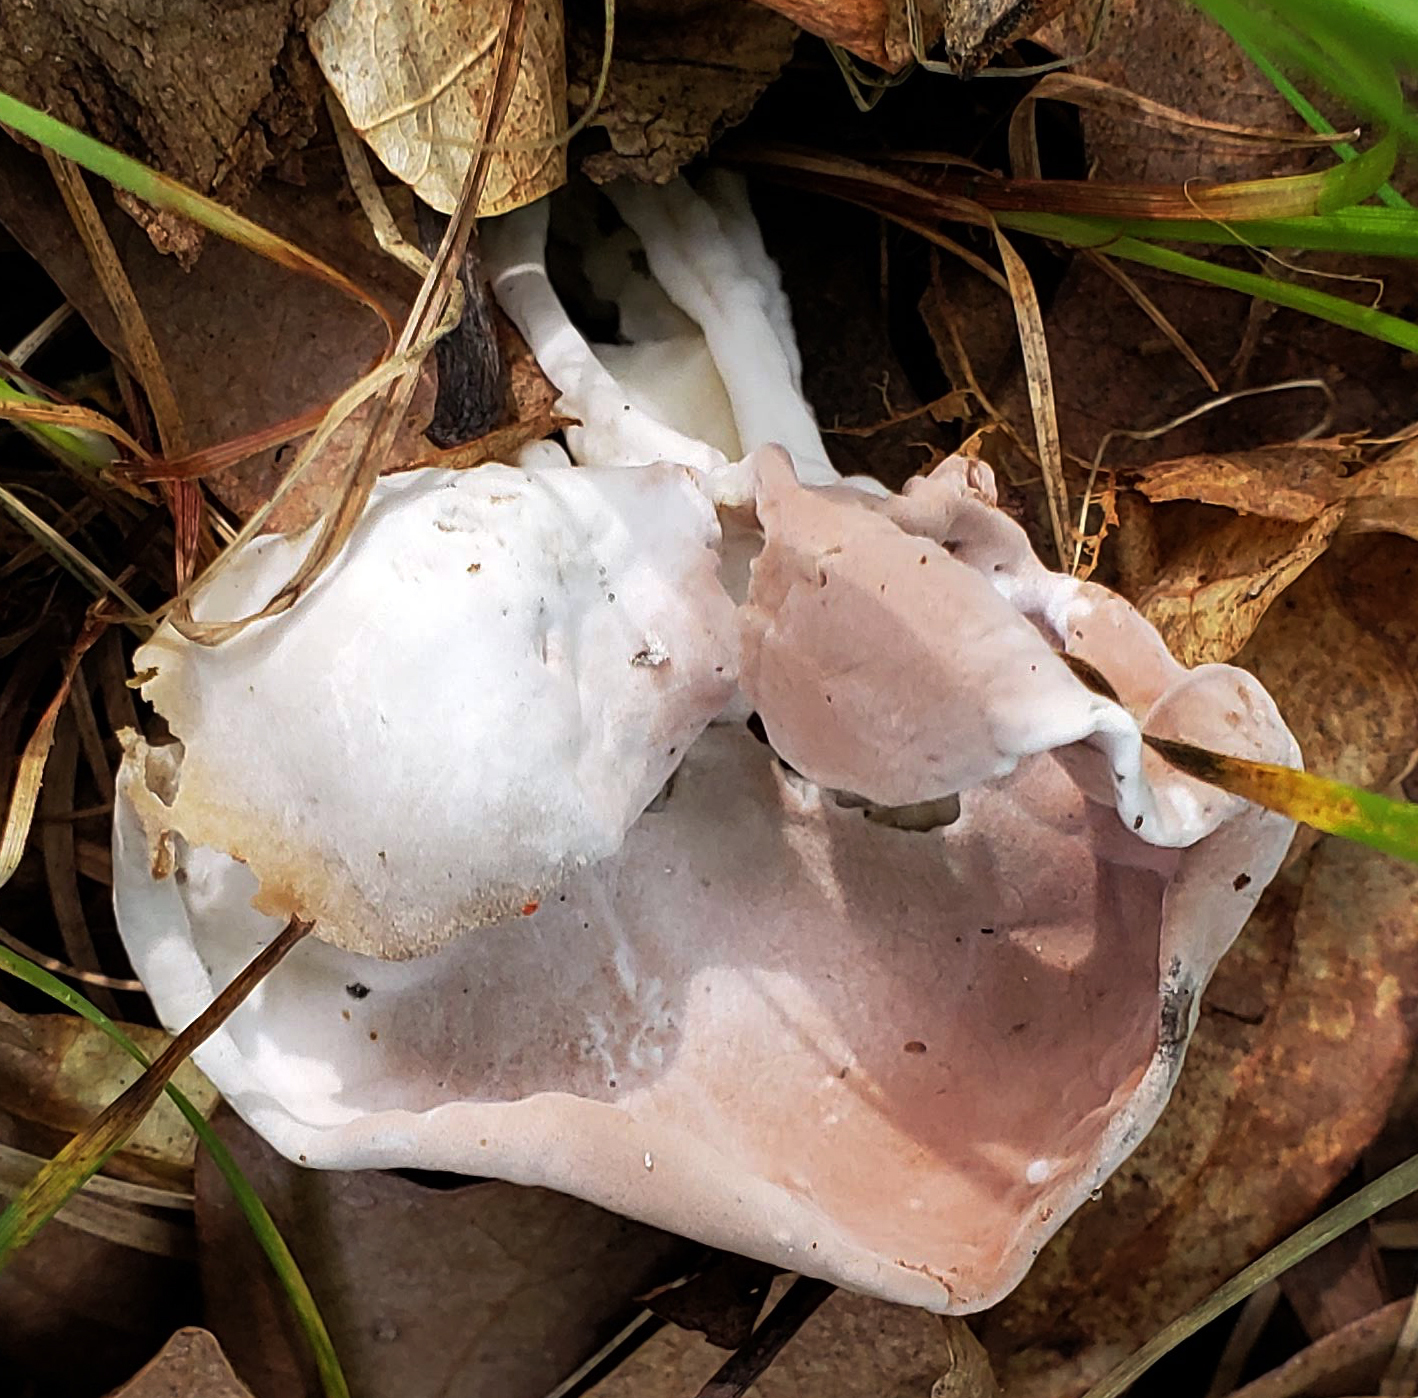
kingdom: Fungi
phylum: Ascomycota
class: Sordariomycetes
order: Hypocreales
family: Hypocreaceae
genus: Hypomyces
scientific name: Hypomyces cervinus
